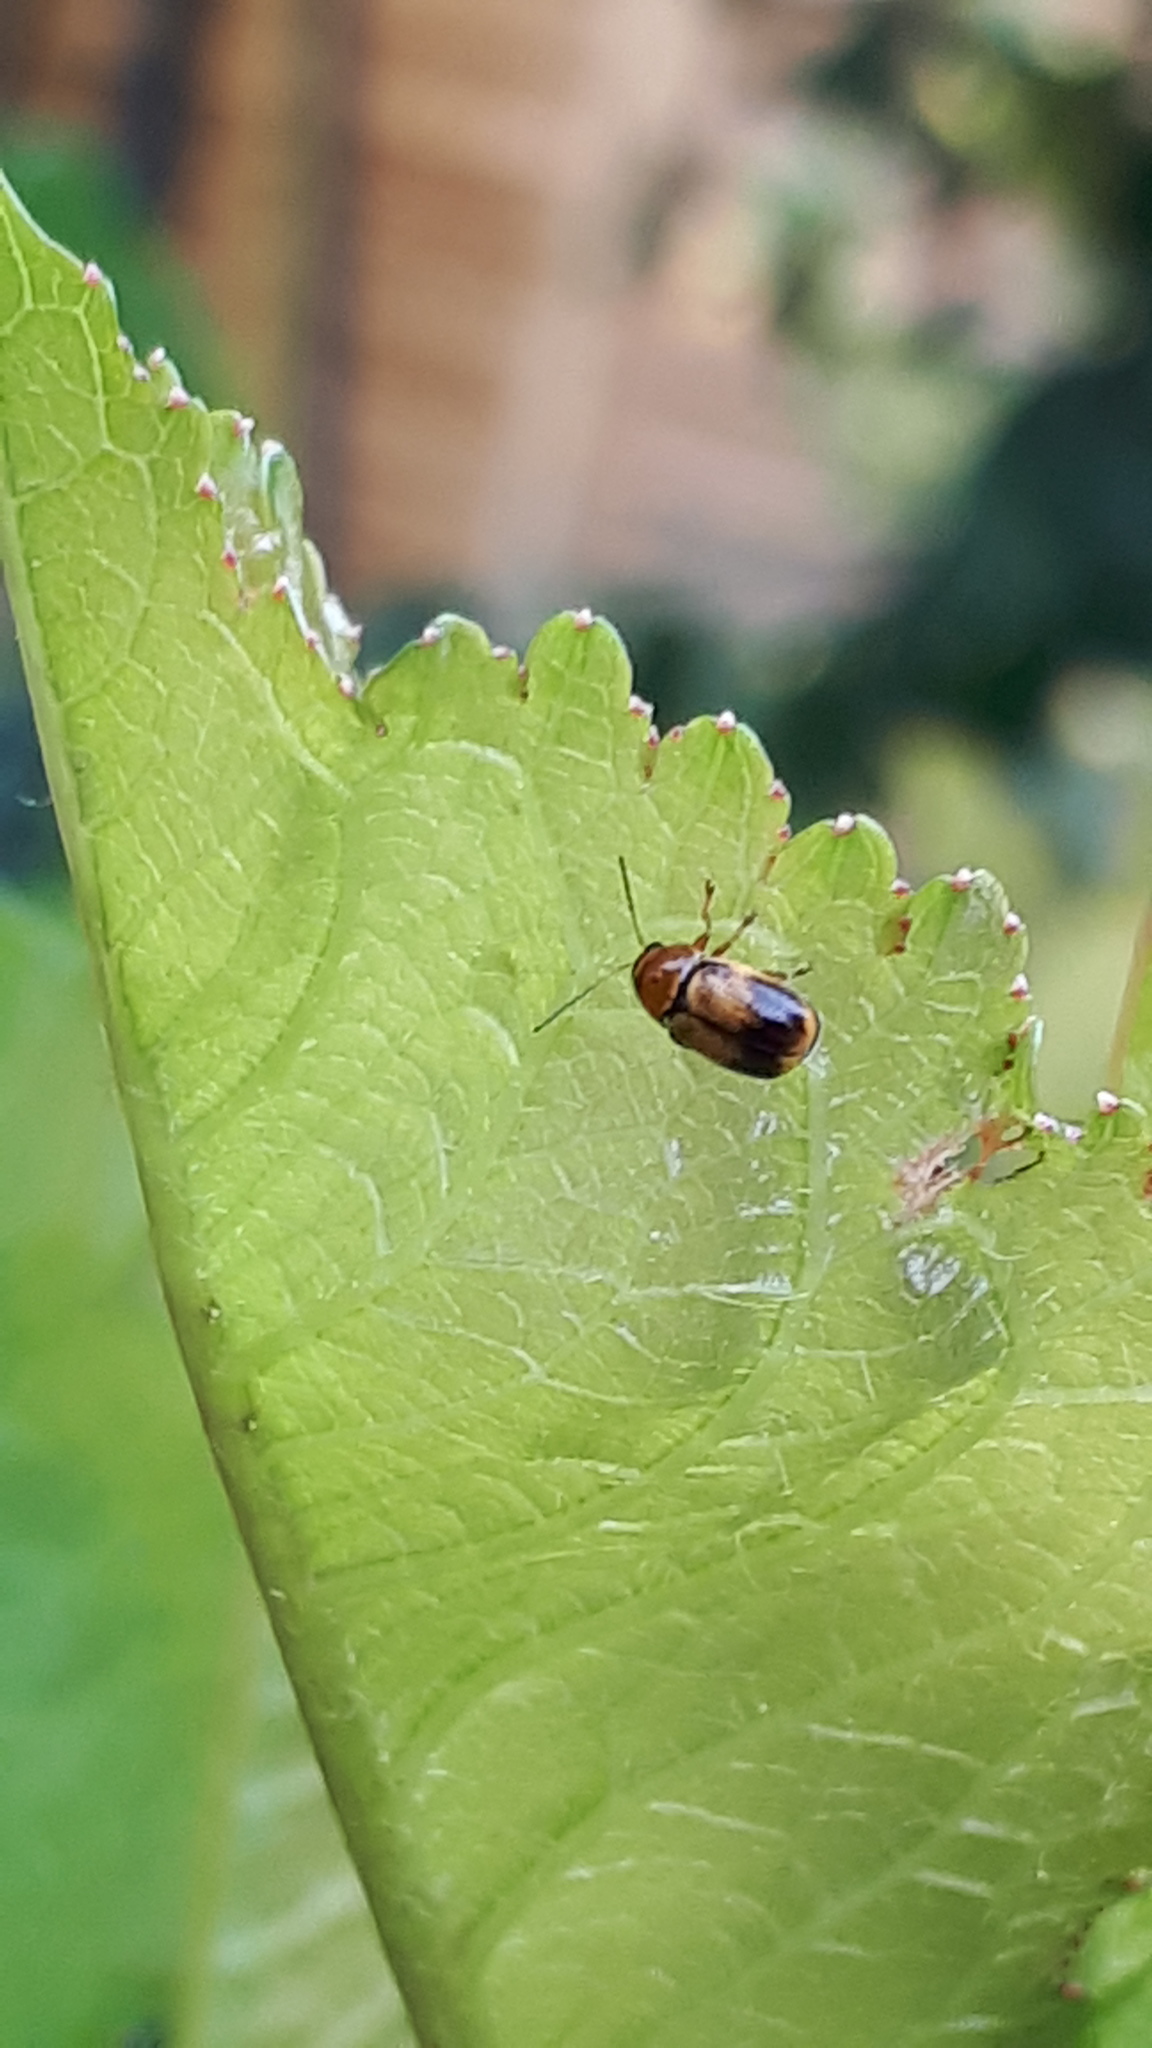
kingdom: Animalia
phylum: Arthropoda
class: Insecta
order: Coleoptera
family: Chrysomelidae
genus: Cryptocephalus
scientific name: Cryptocephalus pusillus
